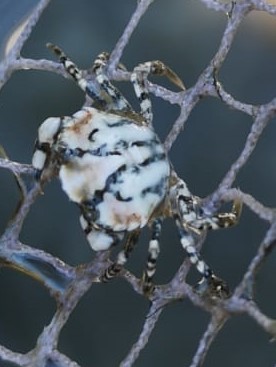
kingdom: Animalia
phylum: Arthropoda
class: Malacostraca
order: Decapoda
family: Carcinidae
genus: Carcinus
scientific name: Carcinus maenas
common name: European green crab
